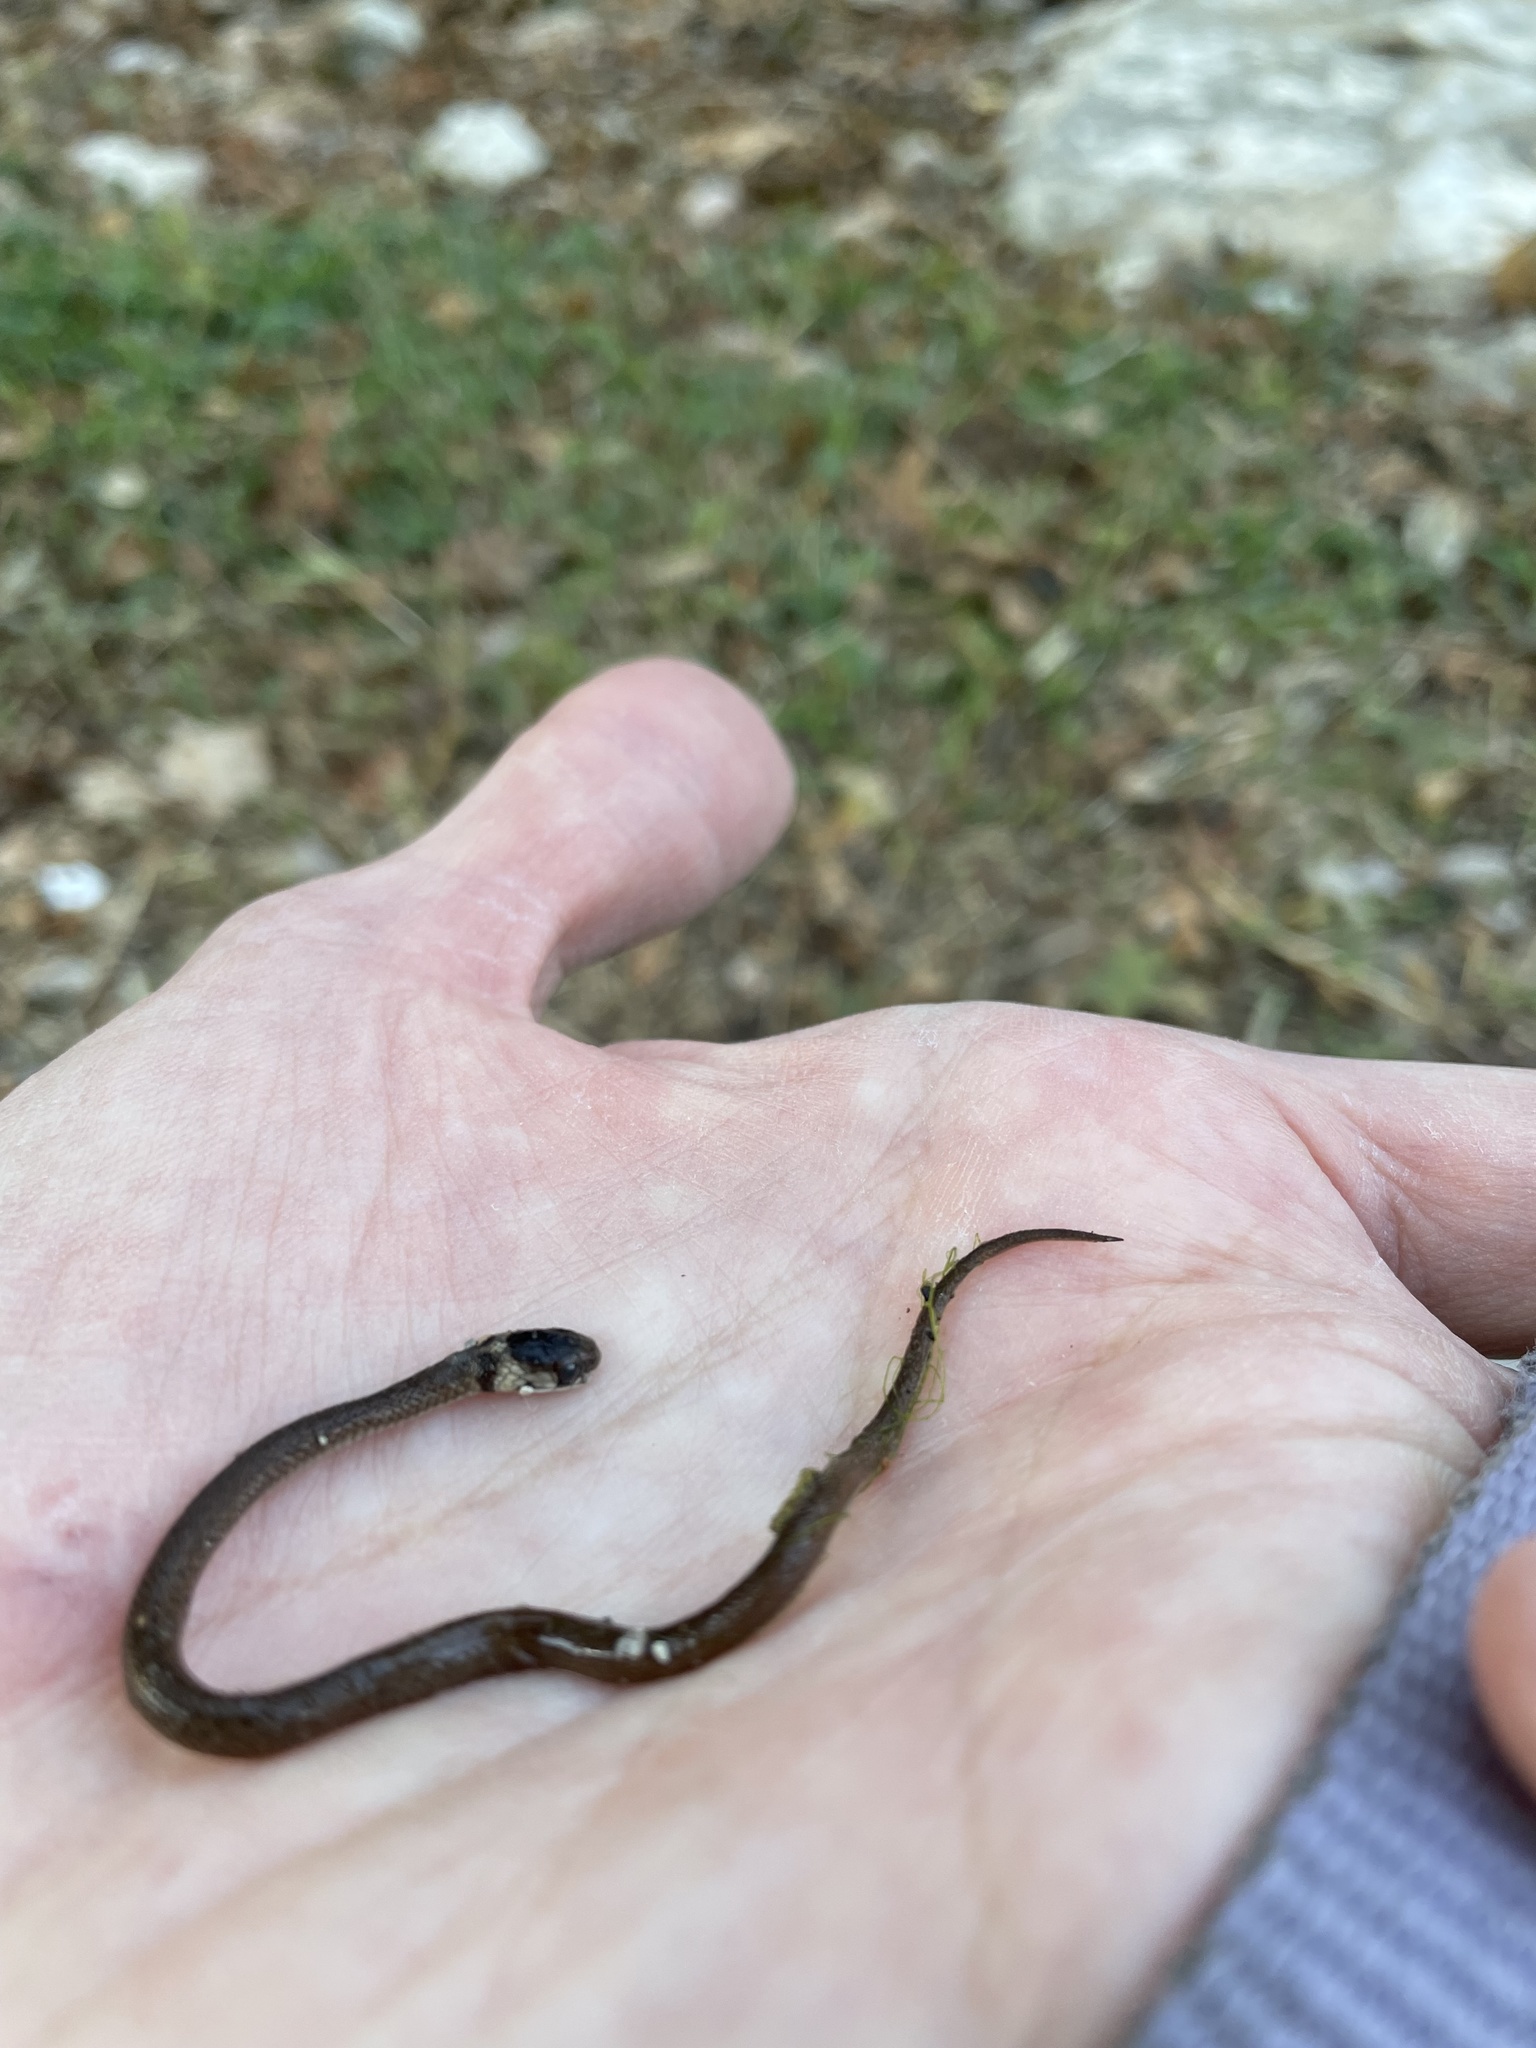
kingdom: Animalia
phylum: Chordata
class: Squamata
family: Colubridae
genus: Storeria
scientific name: Storeria dekayi
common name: (dekay’s) brown snake
